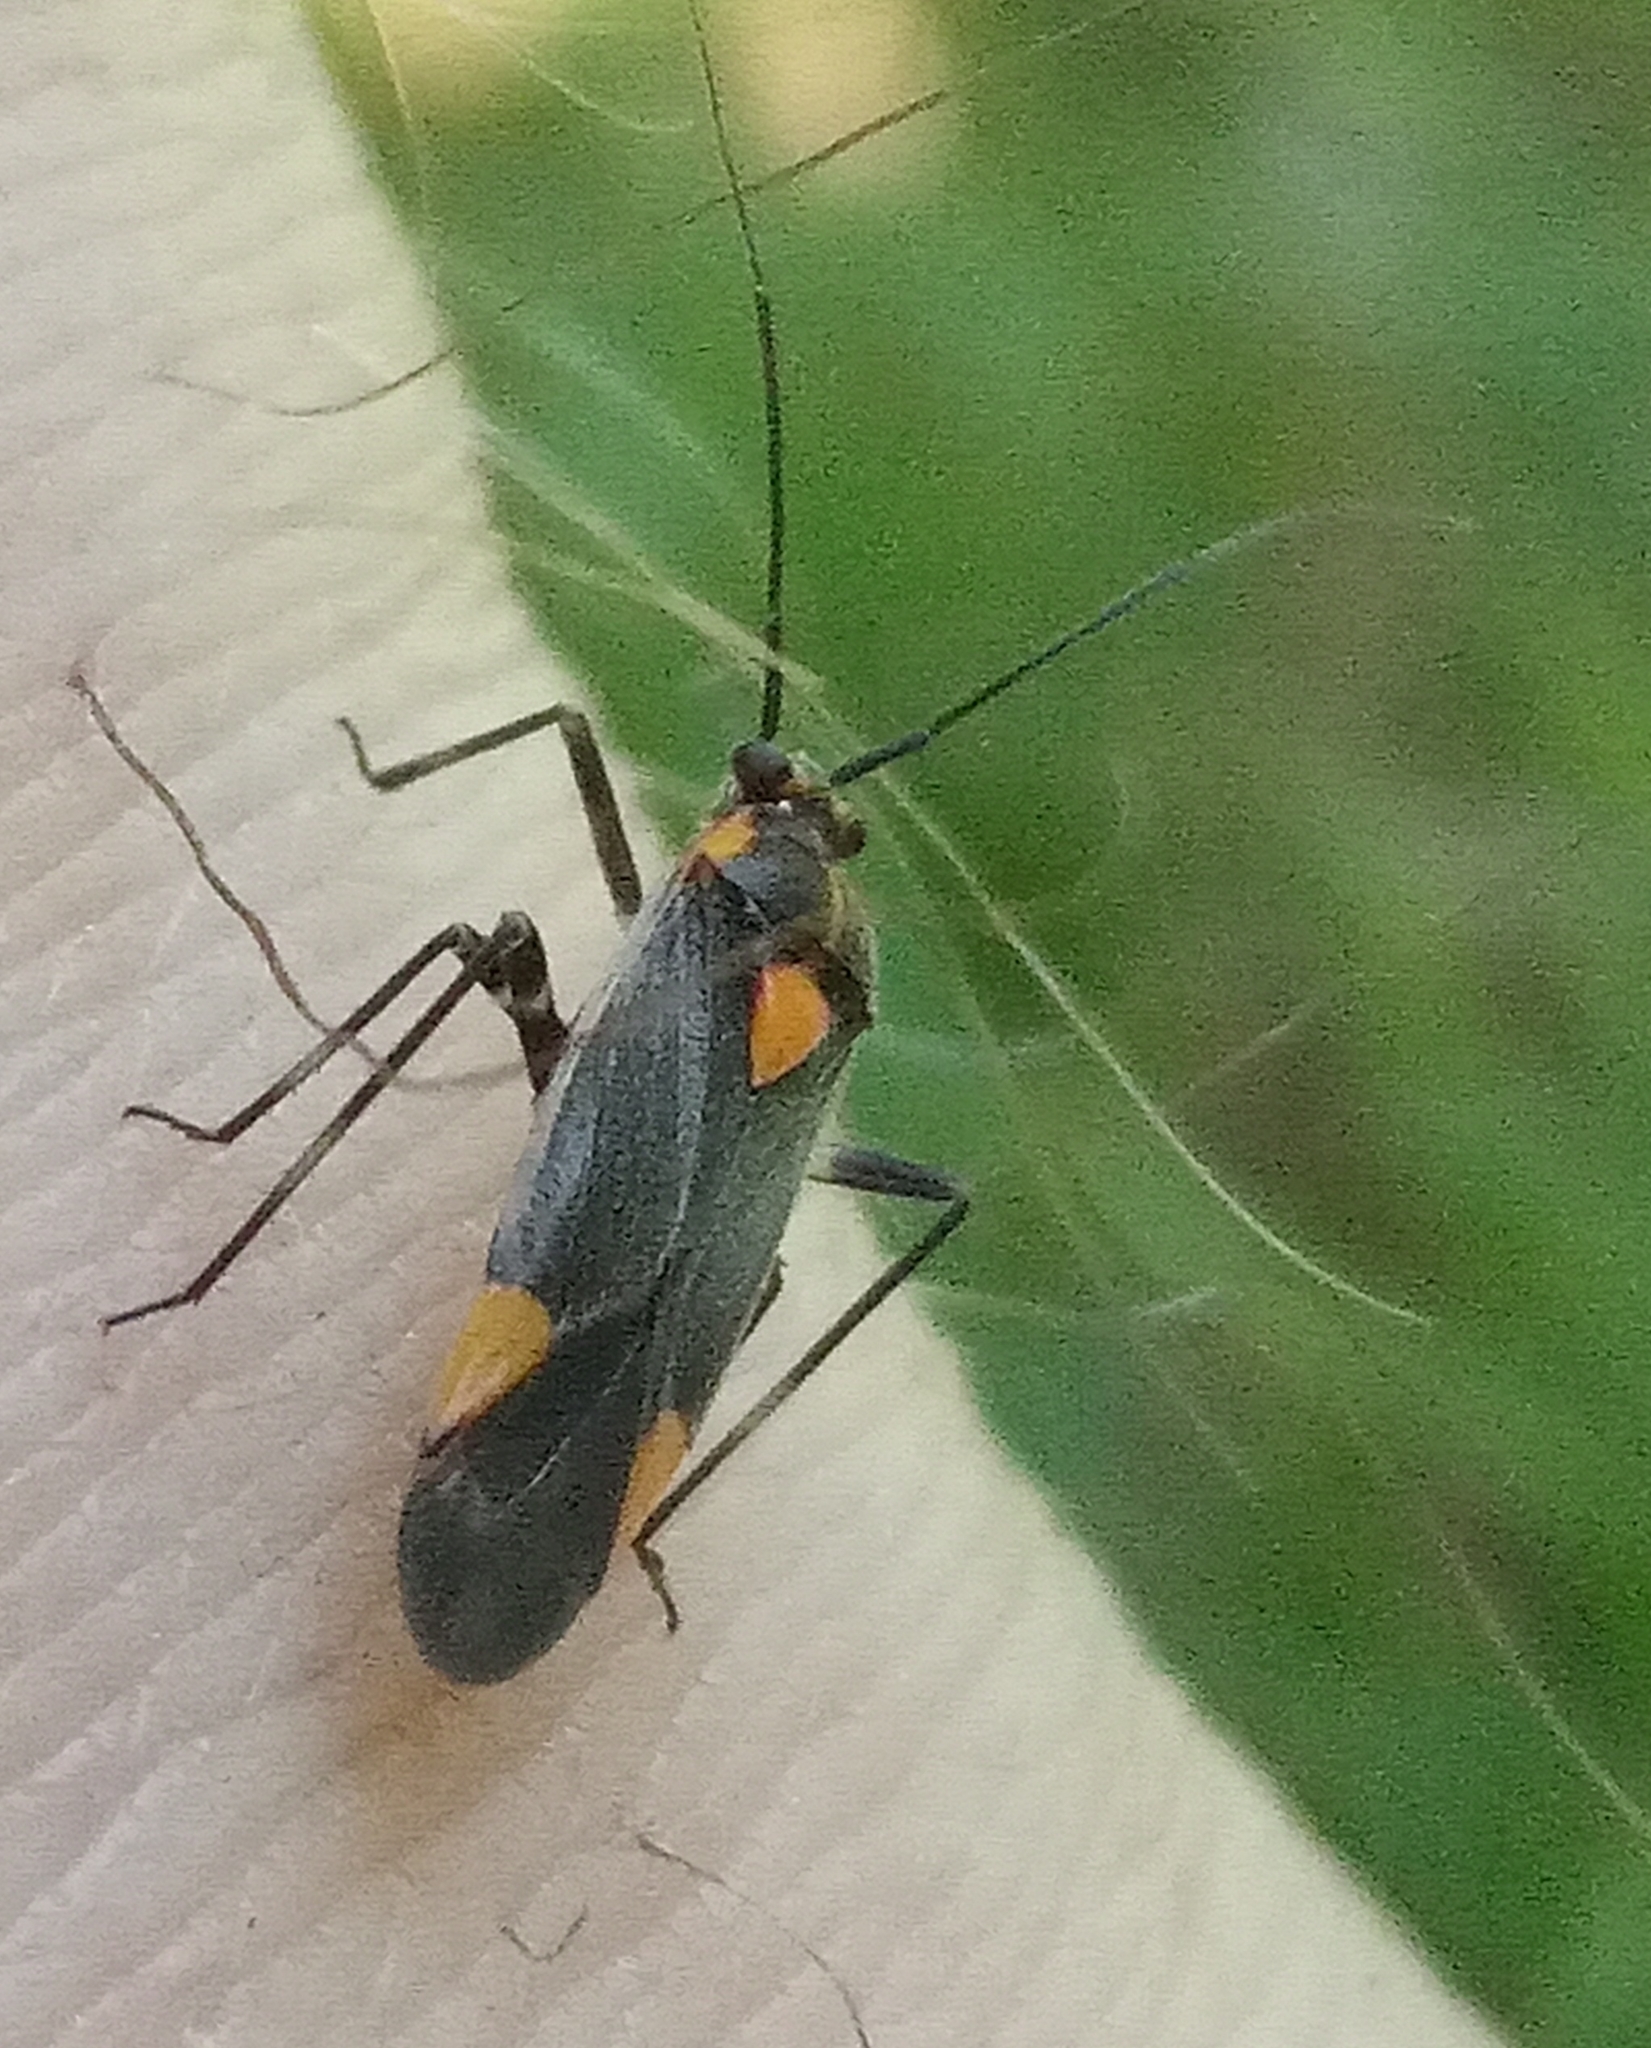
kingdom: Animalia
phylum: Arthropoda
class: Insecta
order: Hemiptera
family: Miridae
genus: Capsodes
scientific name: Capsodes flavomarginatus
